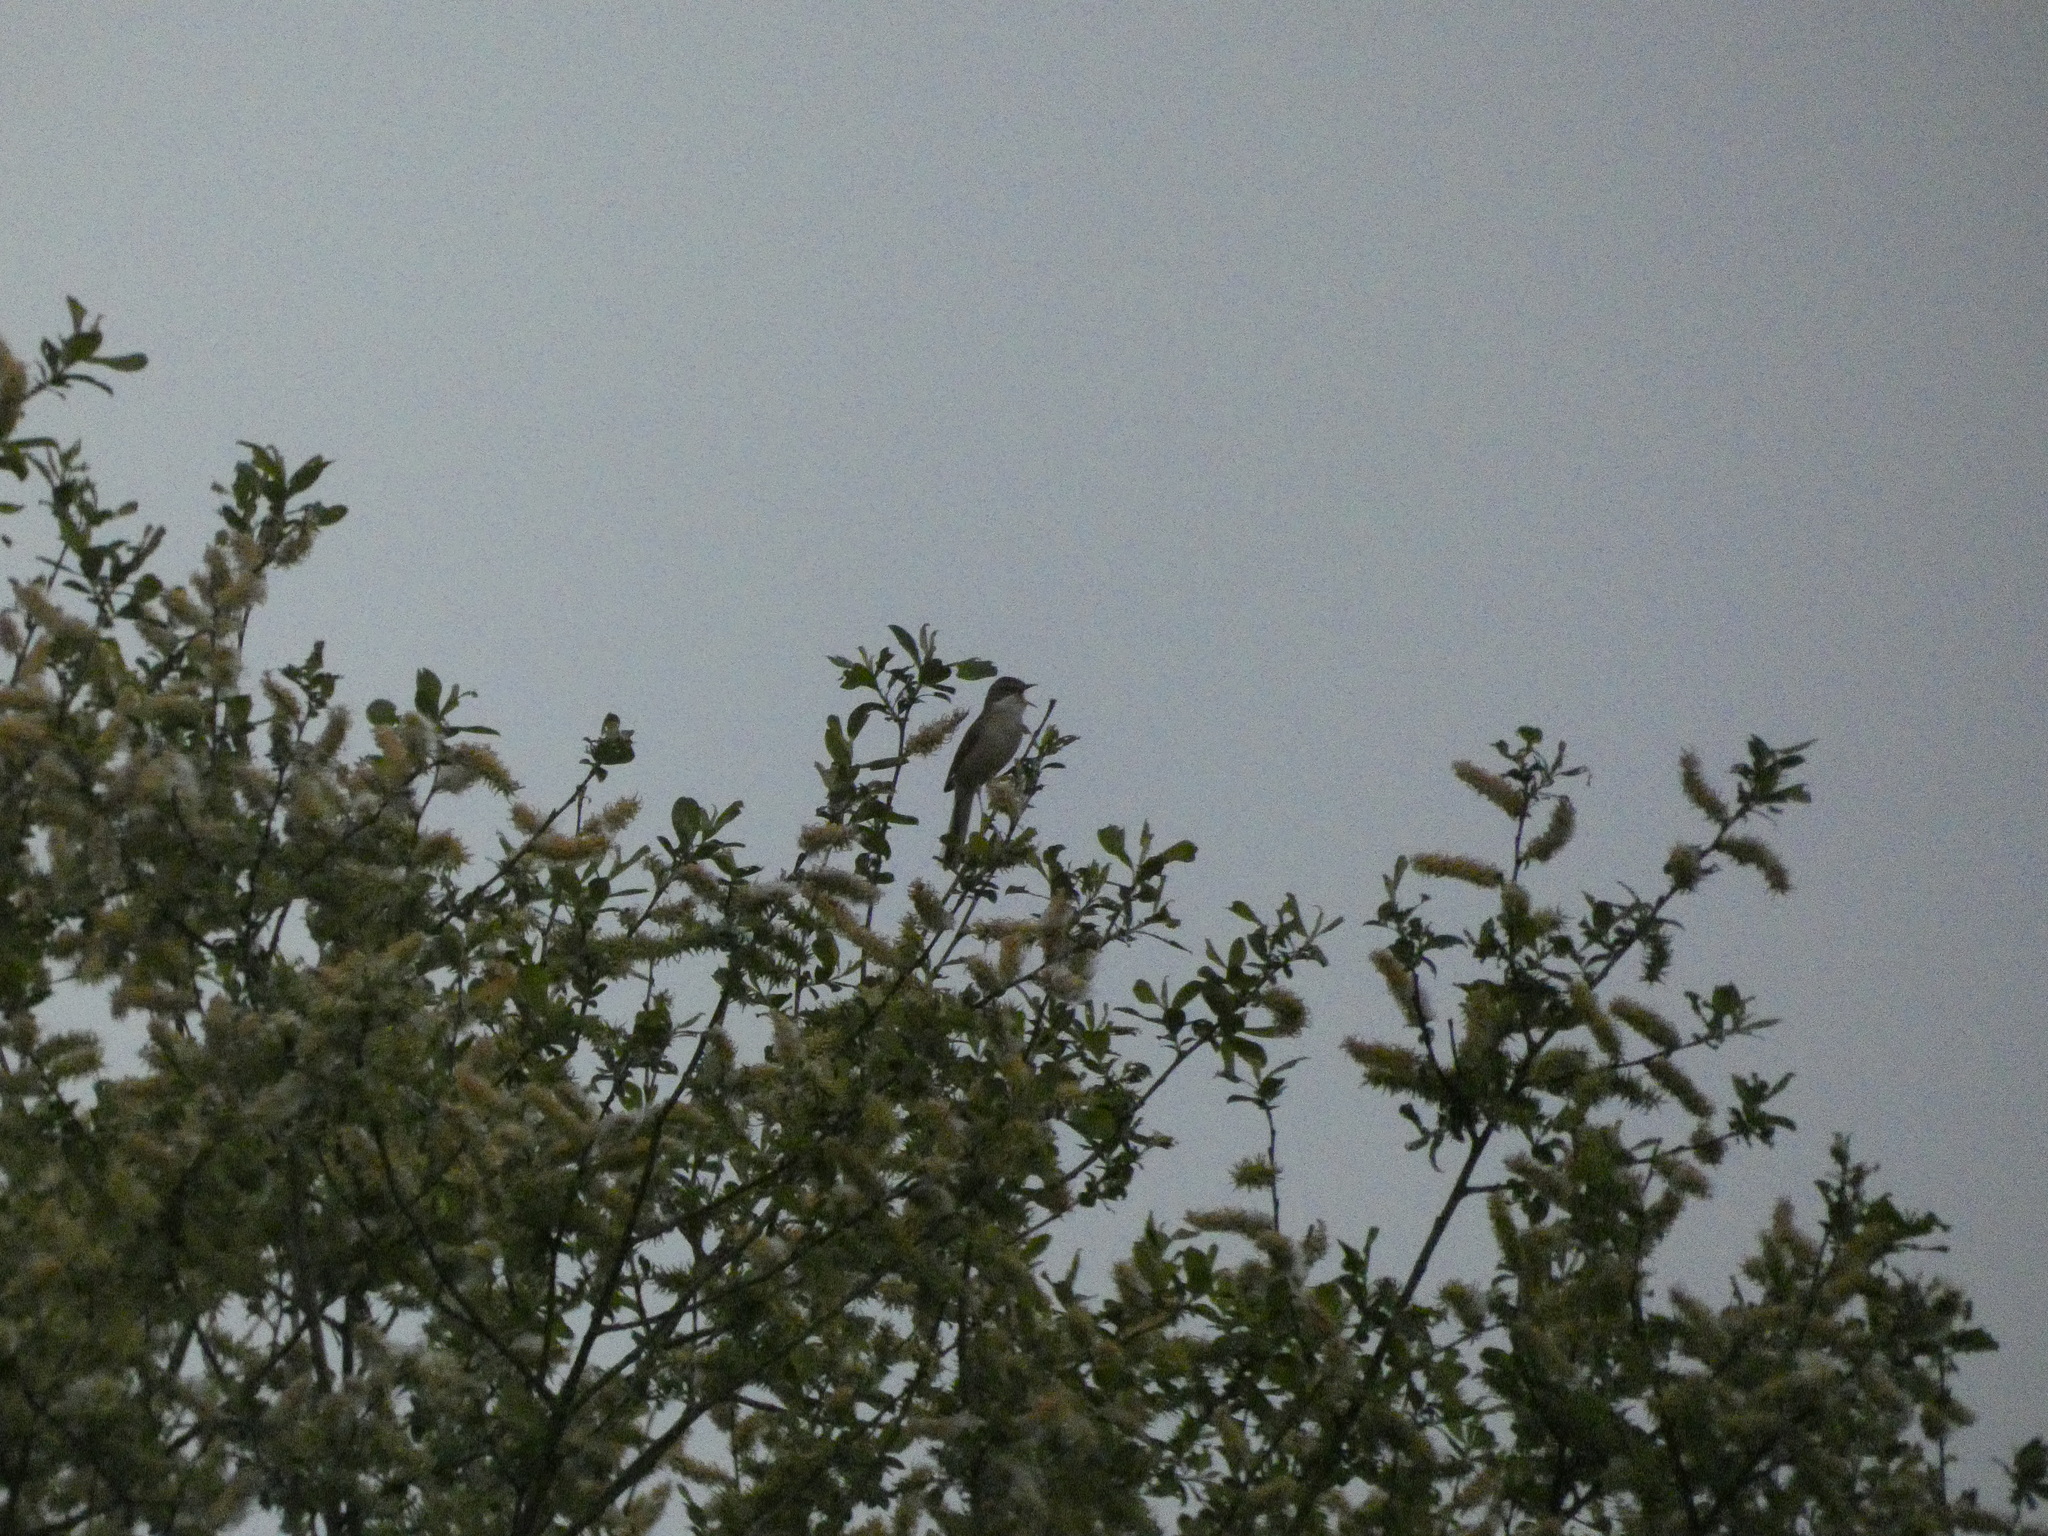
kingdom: Animalia
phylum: Chordata
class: Aves
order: Passeriformes
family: Sylviidae
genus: Sylvia
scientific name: Sylvia communis
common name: Common whitethroat
